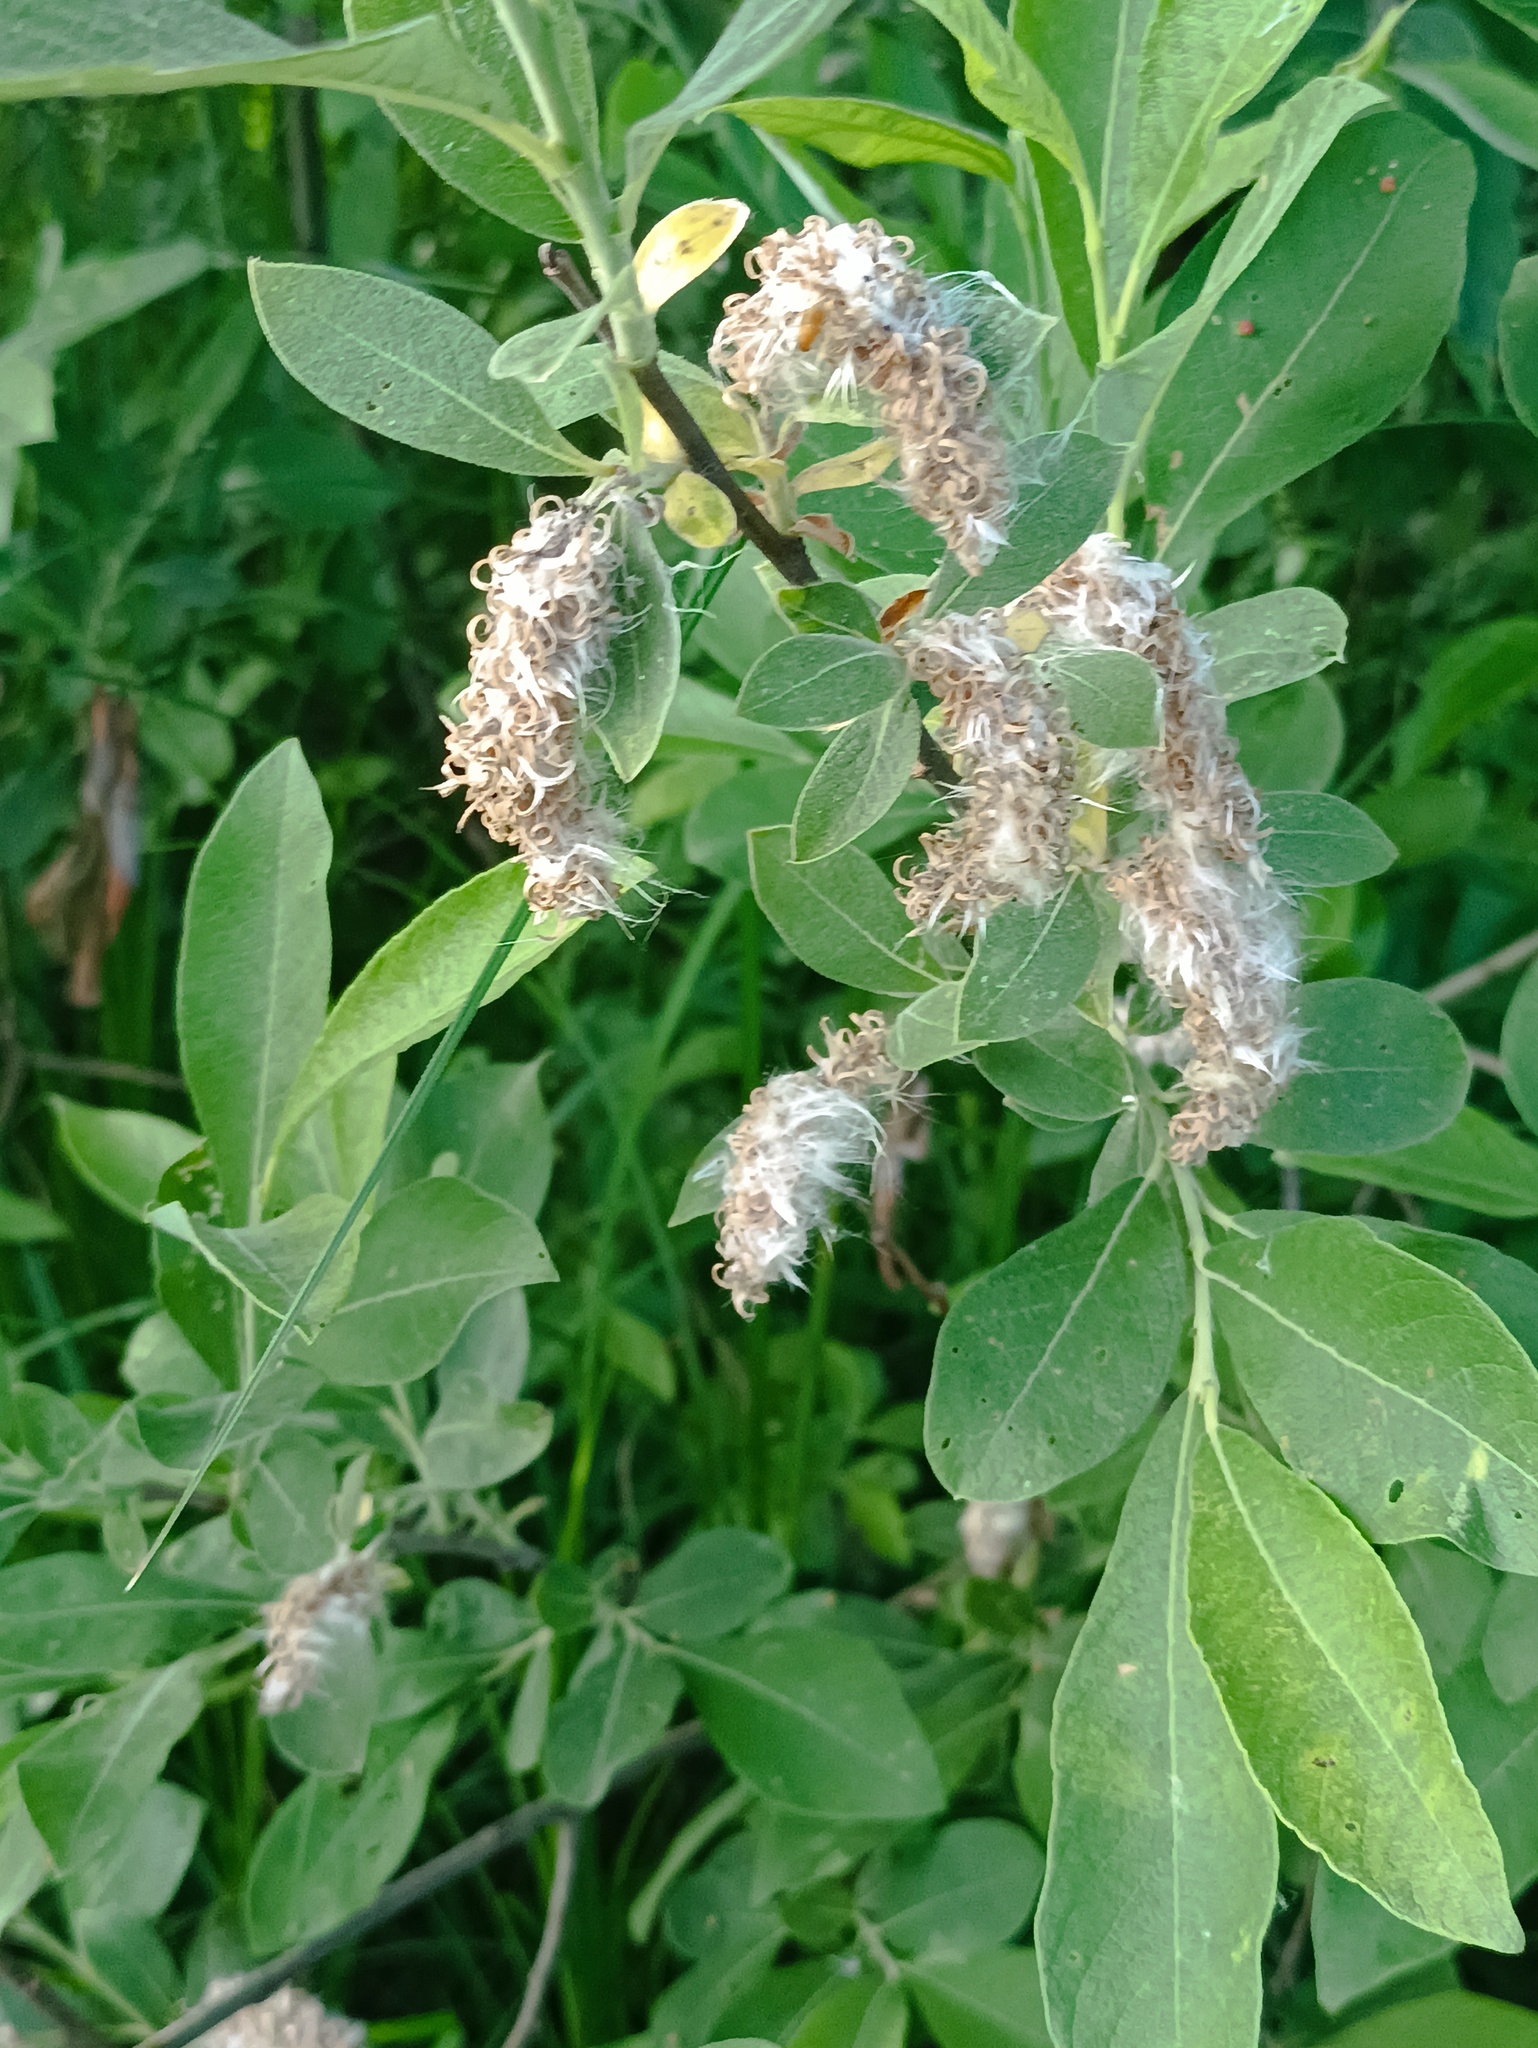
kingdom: Plantae
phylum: Tracheophyta
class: Magnoliopsida
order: Malpighiales
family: Salicaceae
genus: Salix
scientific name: Salix cinerea
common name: Common sallow
